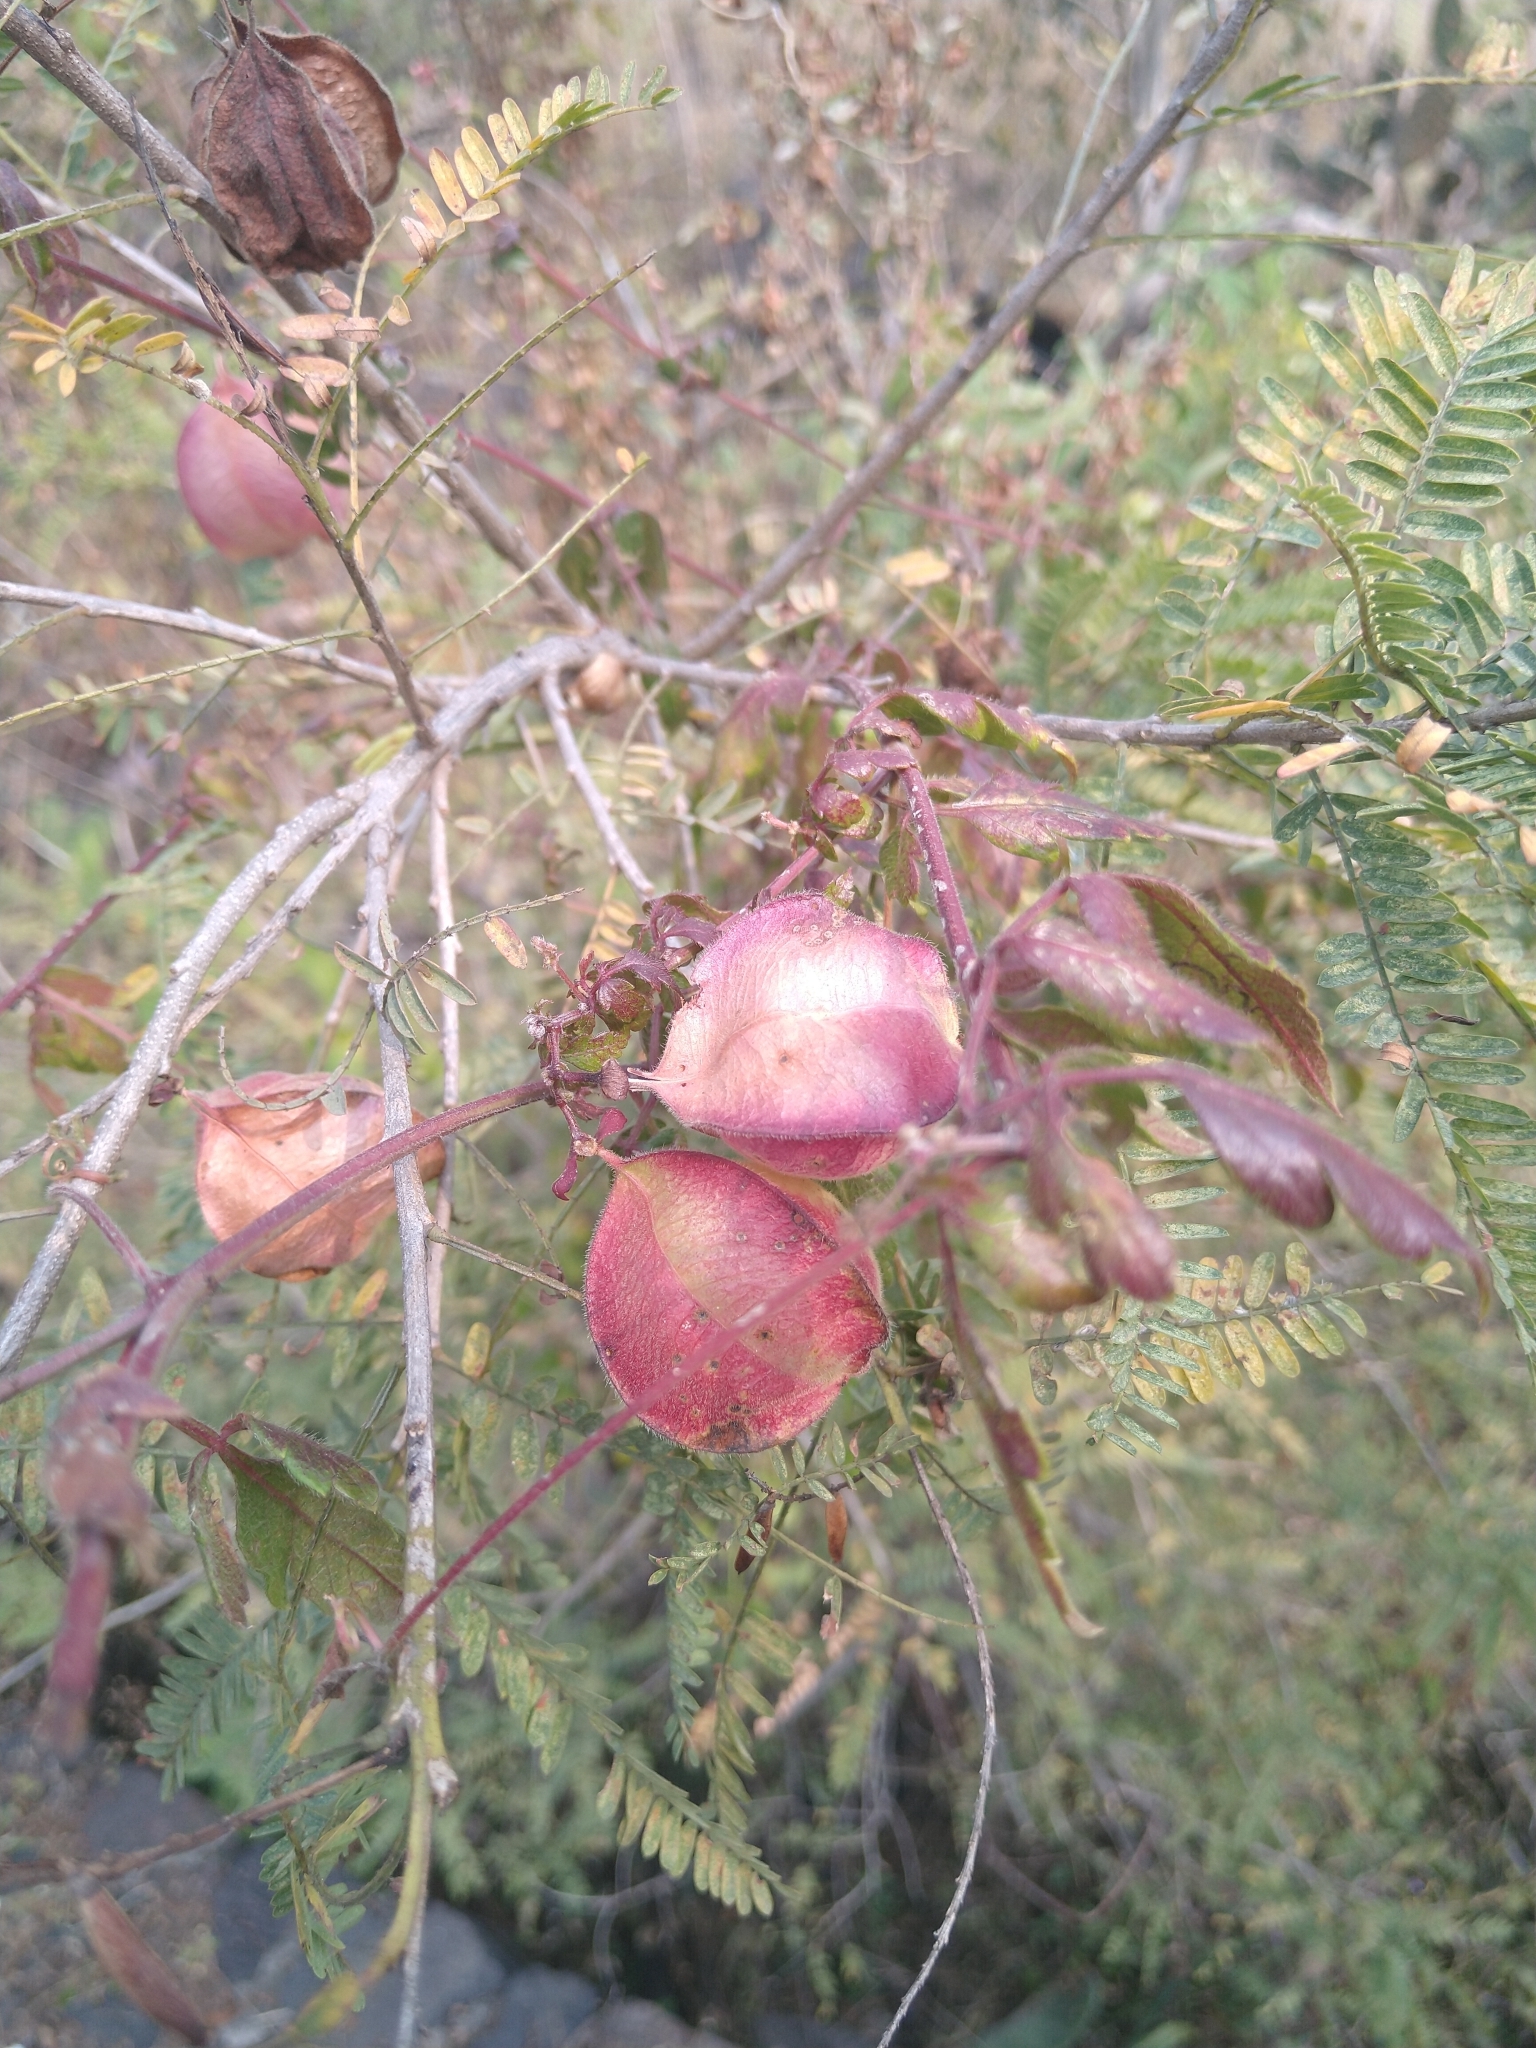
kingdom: Plantae
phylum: Tracheophyta
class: Magnoliopsida
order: Sapindales
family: Sapindaceae
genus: Cardiospermum
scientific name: Cardiospermum corindum
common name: Faux persil
